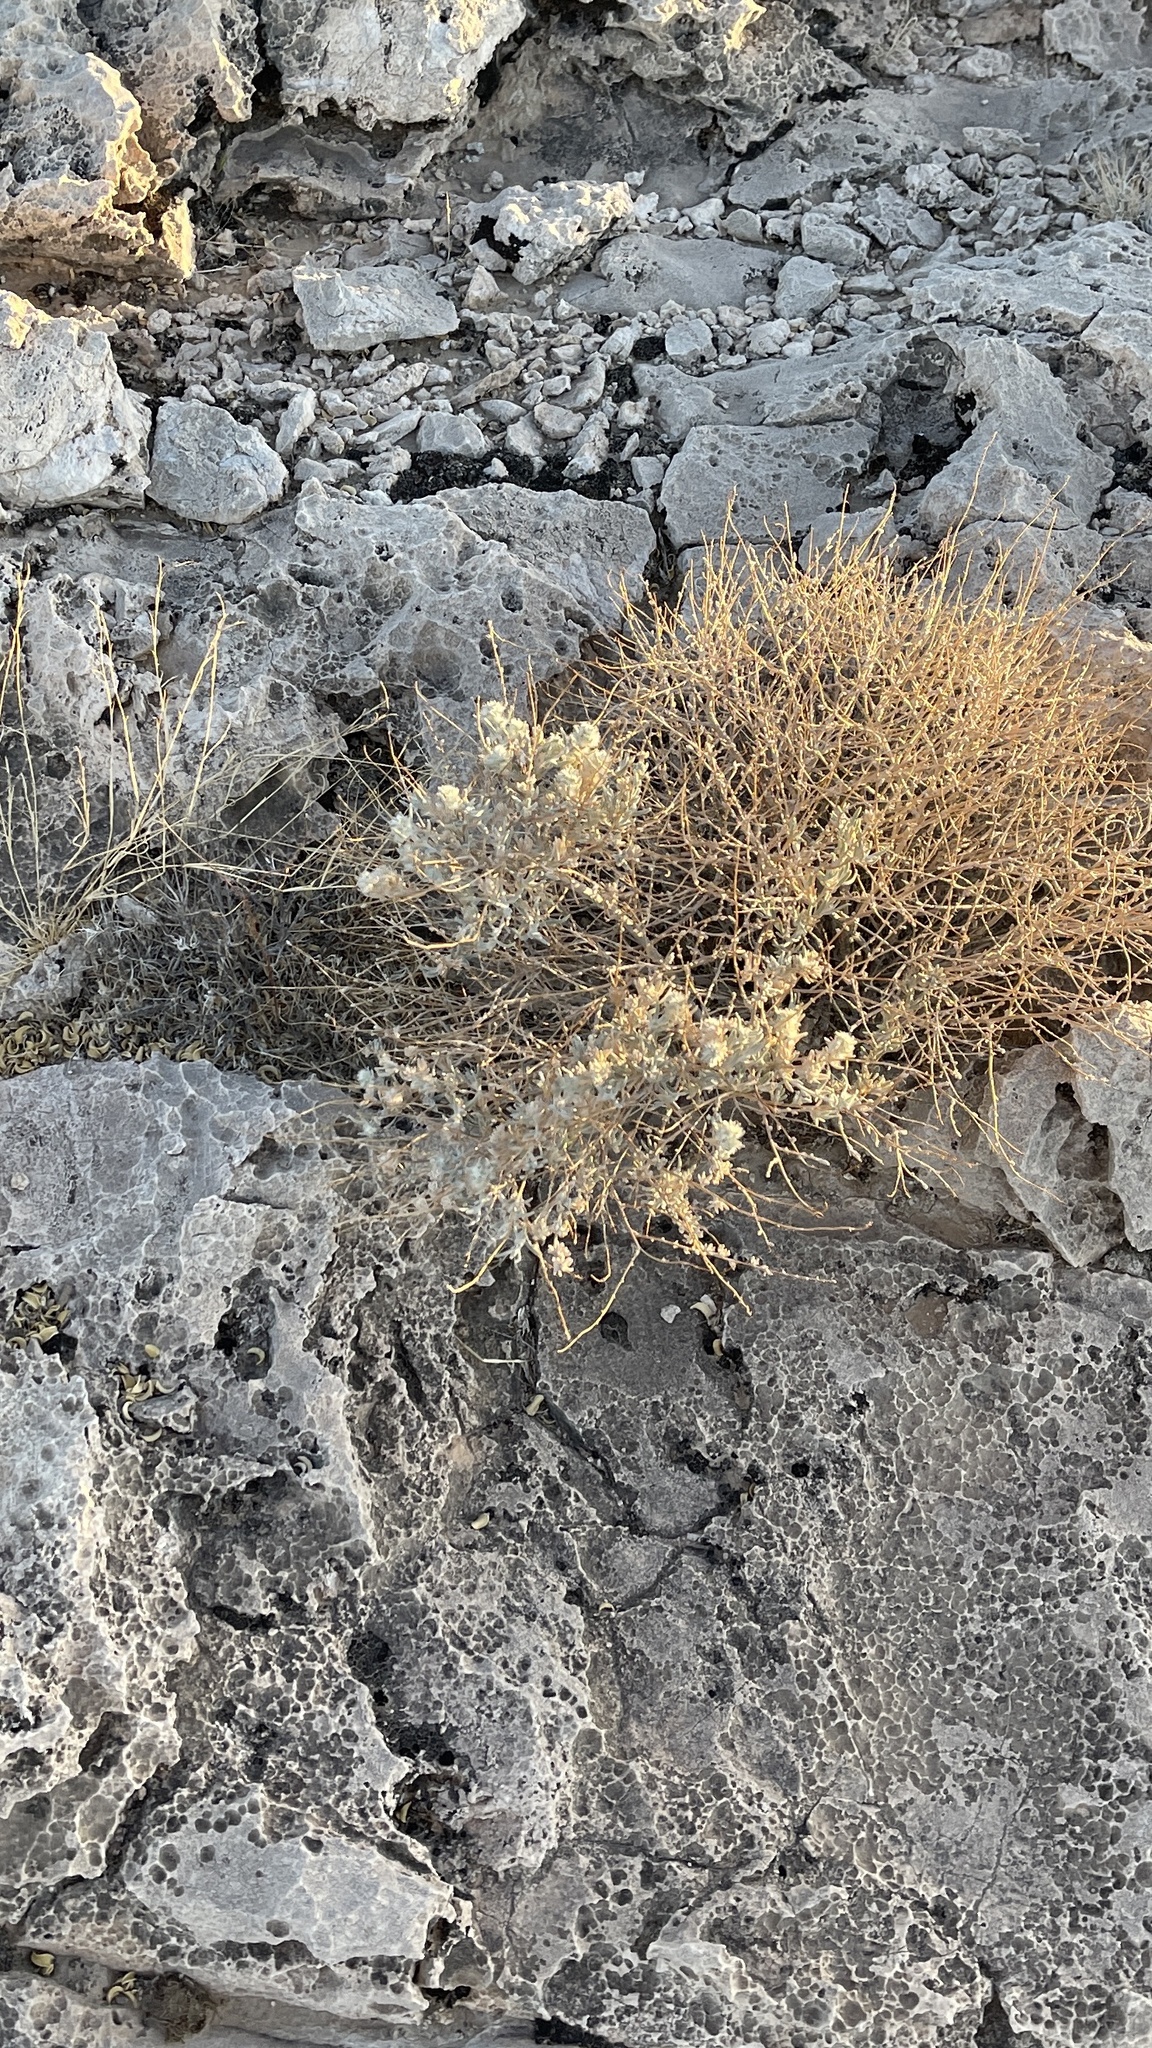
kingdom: Plantae
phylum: Tracheophyta
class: Magnoliopsida
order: Caryophyllales
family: Amaranthaceae
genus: Krascheninnikovia
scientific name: Krascheninnikovia lanata
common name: Winterfat
